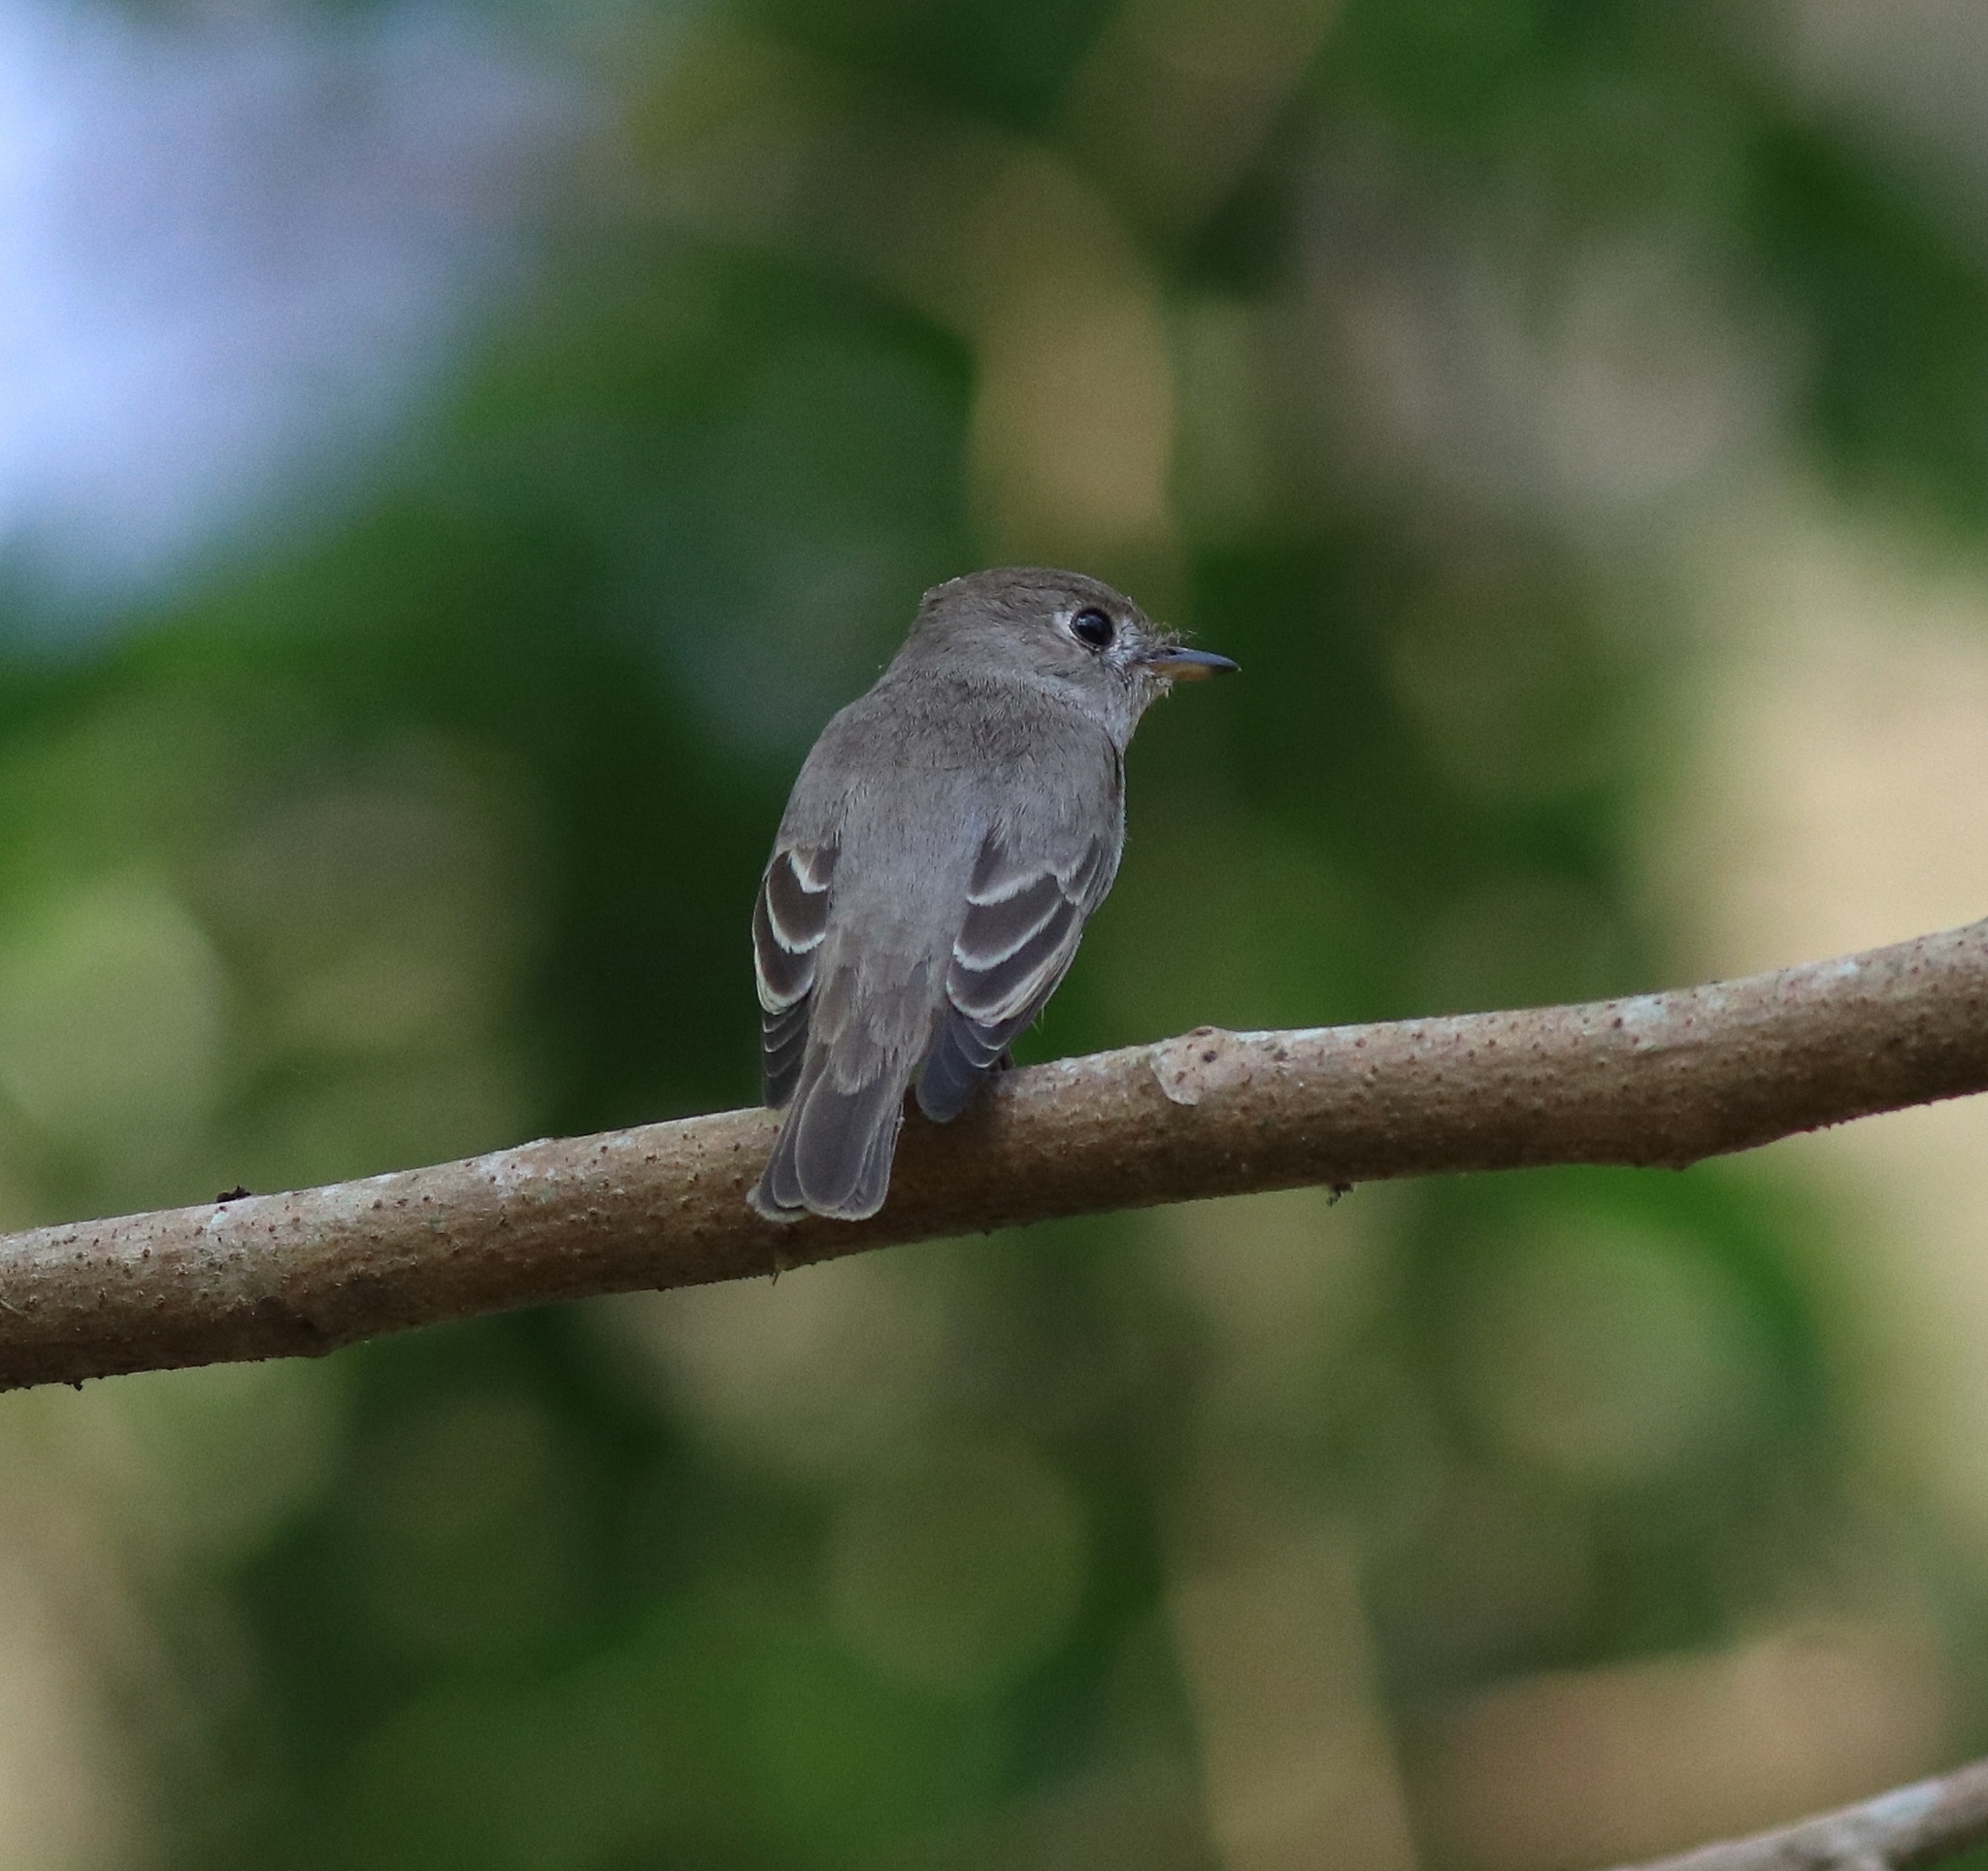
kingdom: Animalia
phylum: Chordata
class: Aves
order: Passeriformes
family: Muscicapidae
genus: Muscicapa
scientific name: Muscicapa latirostris
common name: Asian brown flycatcher
